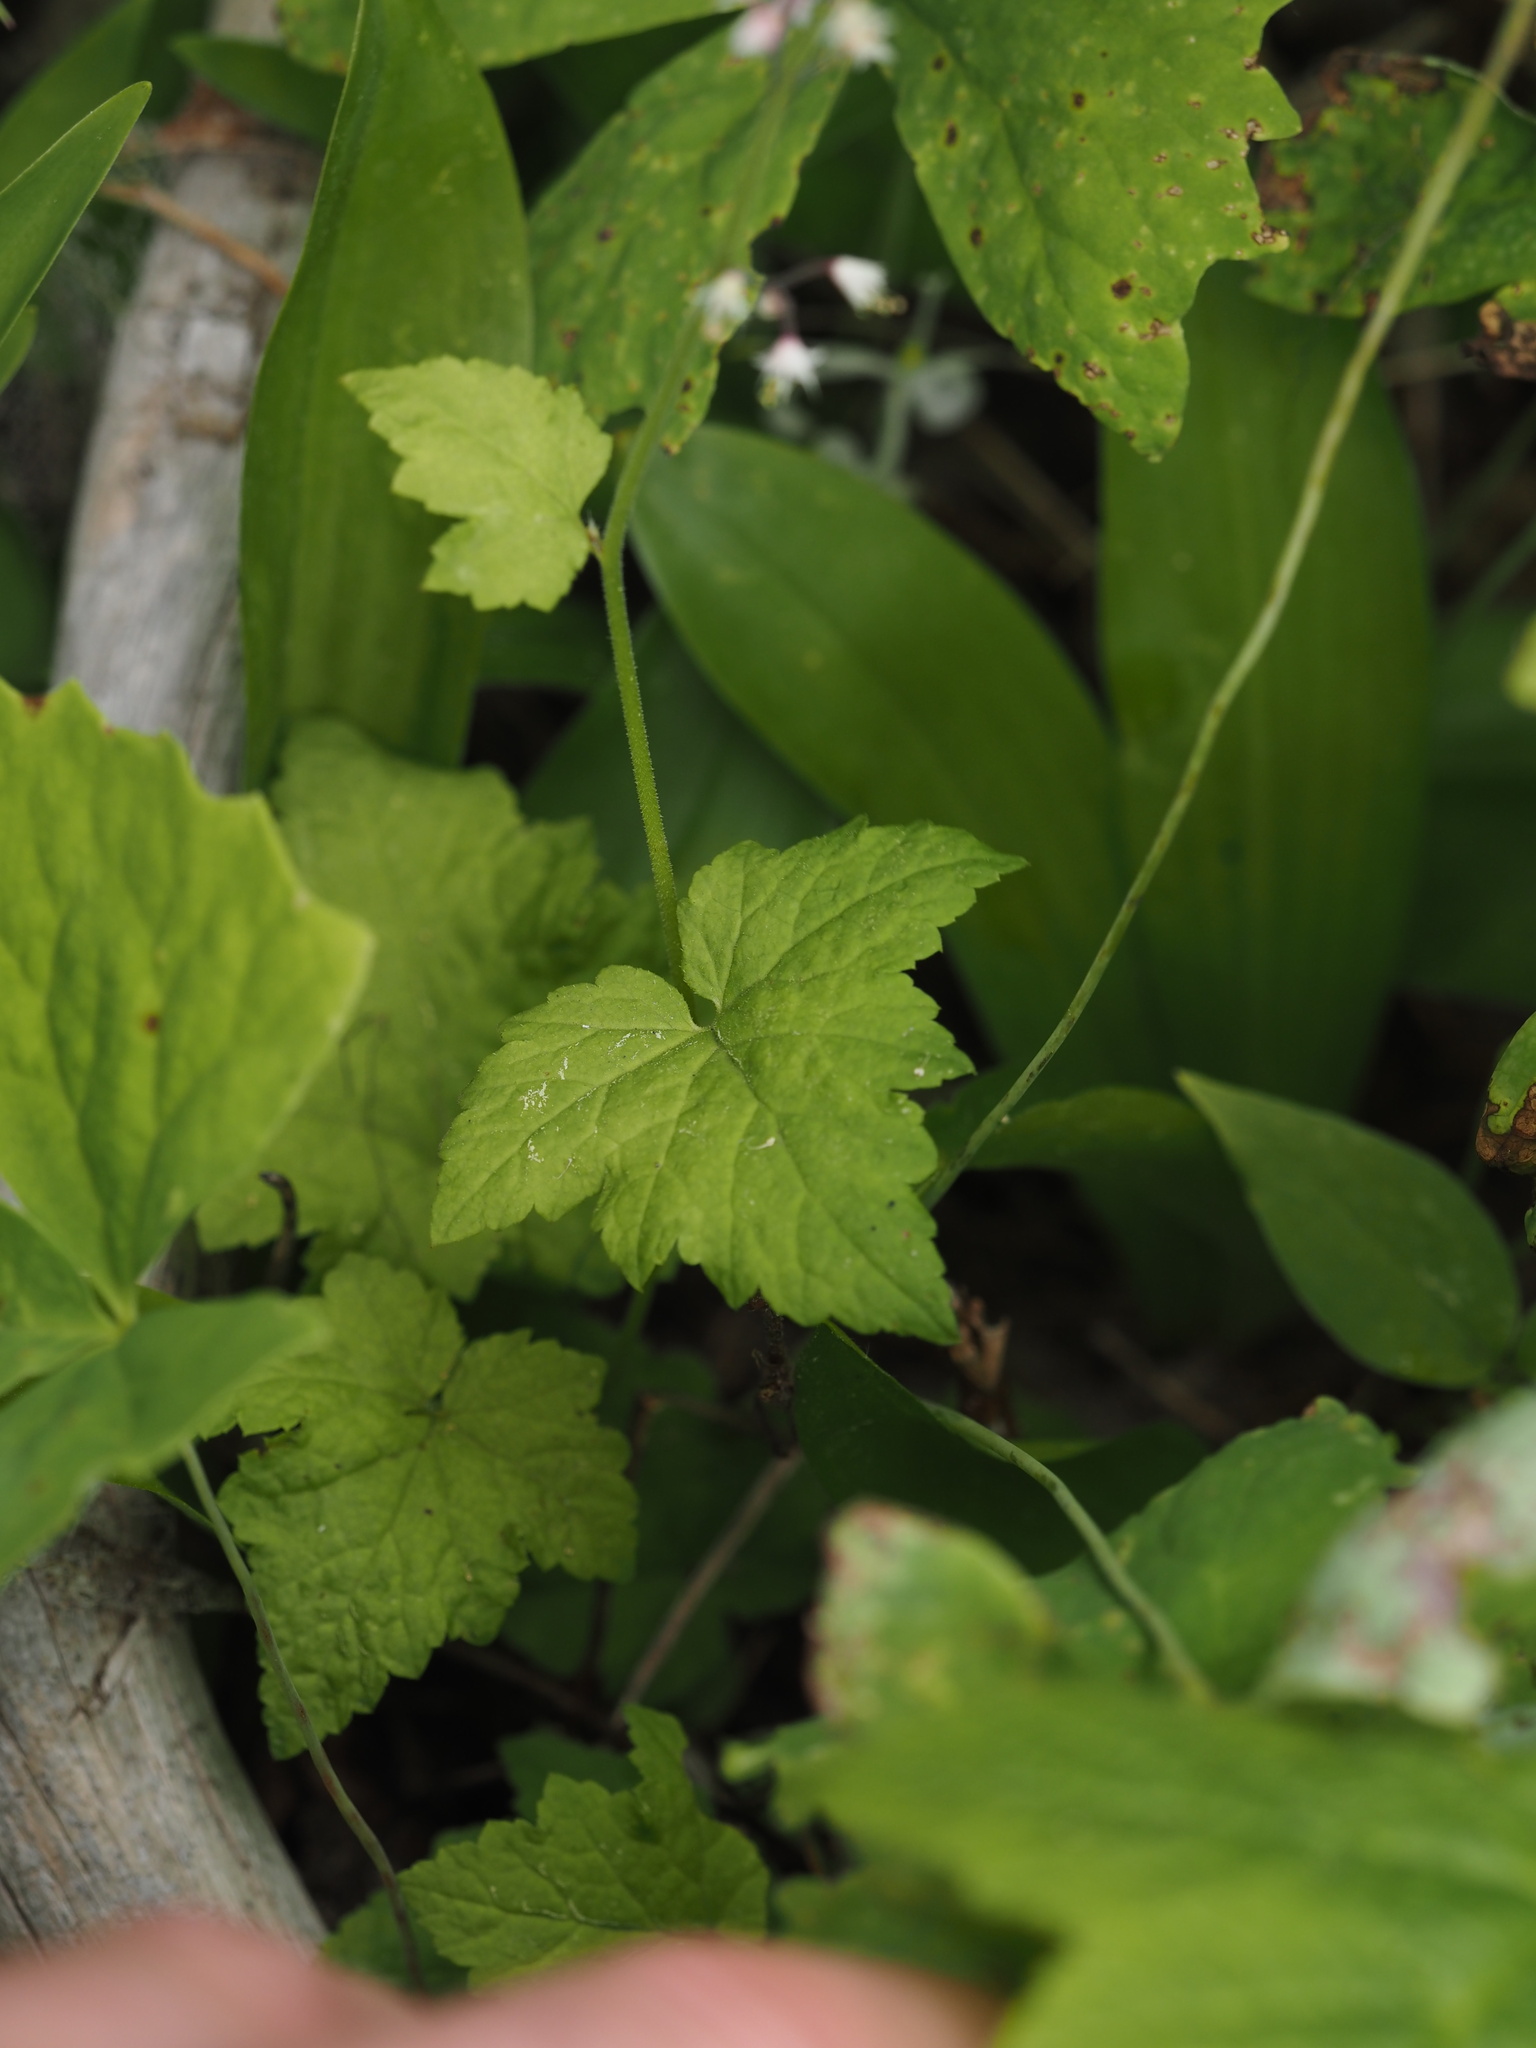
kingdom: Plantae
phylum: Tracheophyta
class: Magnoliopsida
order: Saxifragales
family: Saxifragaceae
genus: Tiarella
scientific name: Tiarella trifoliata
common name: Sugar-scoop
